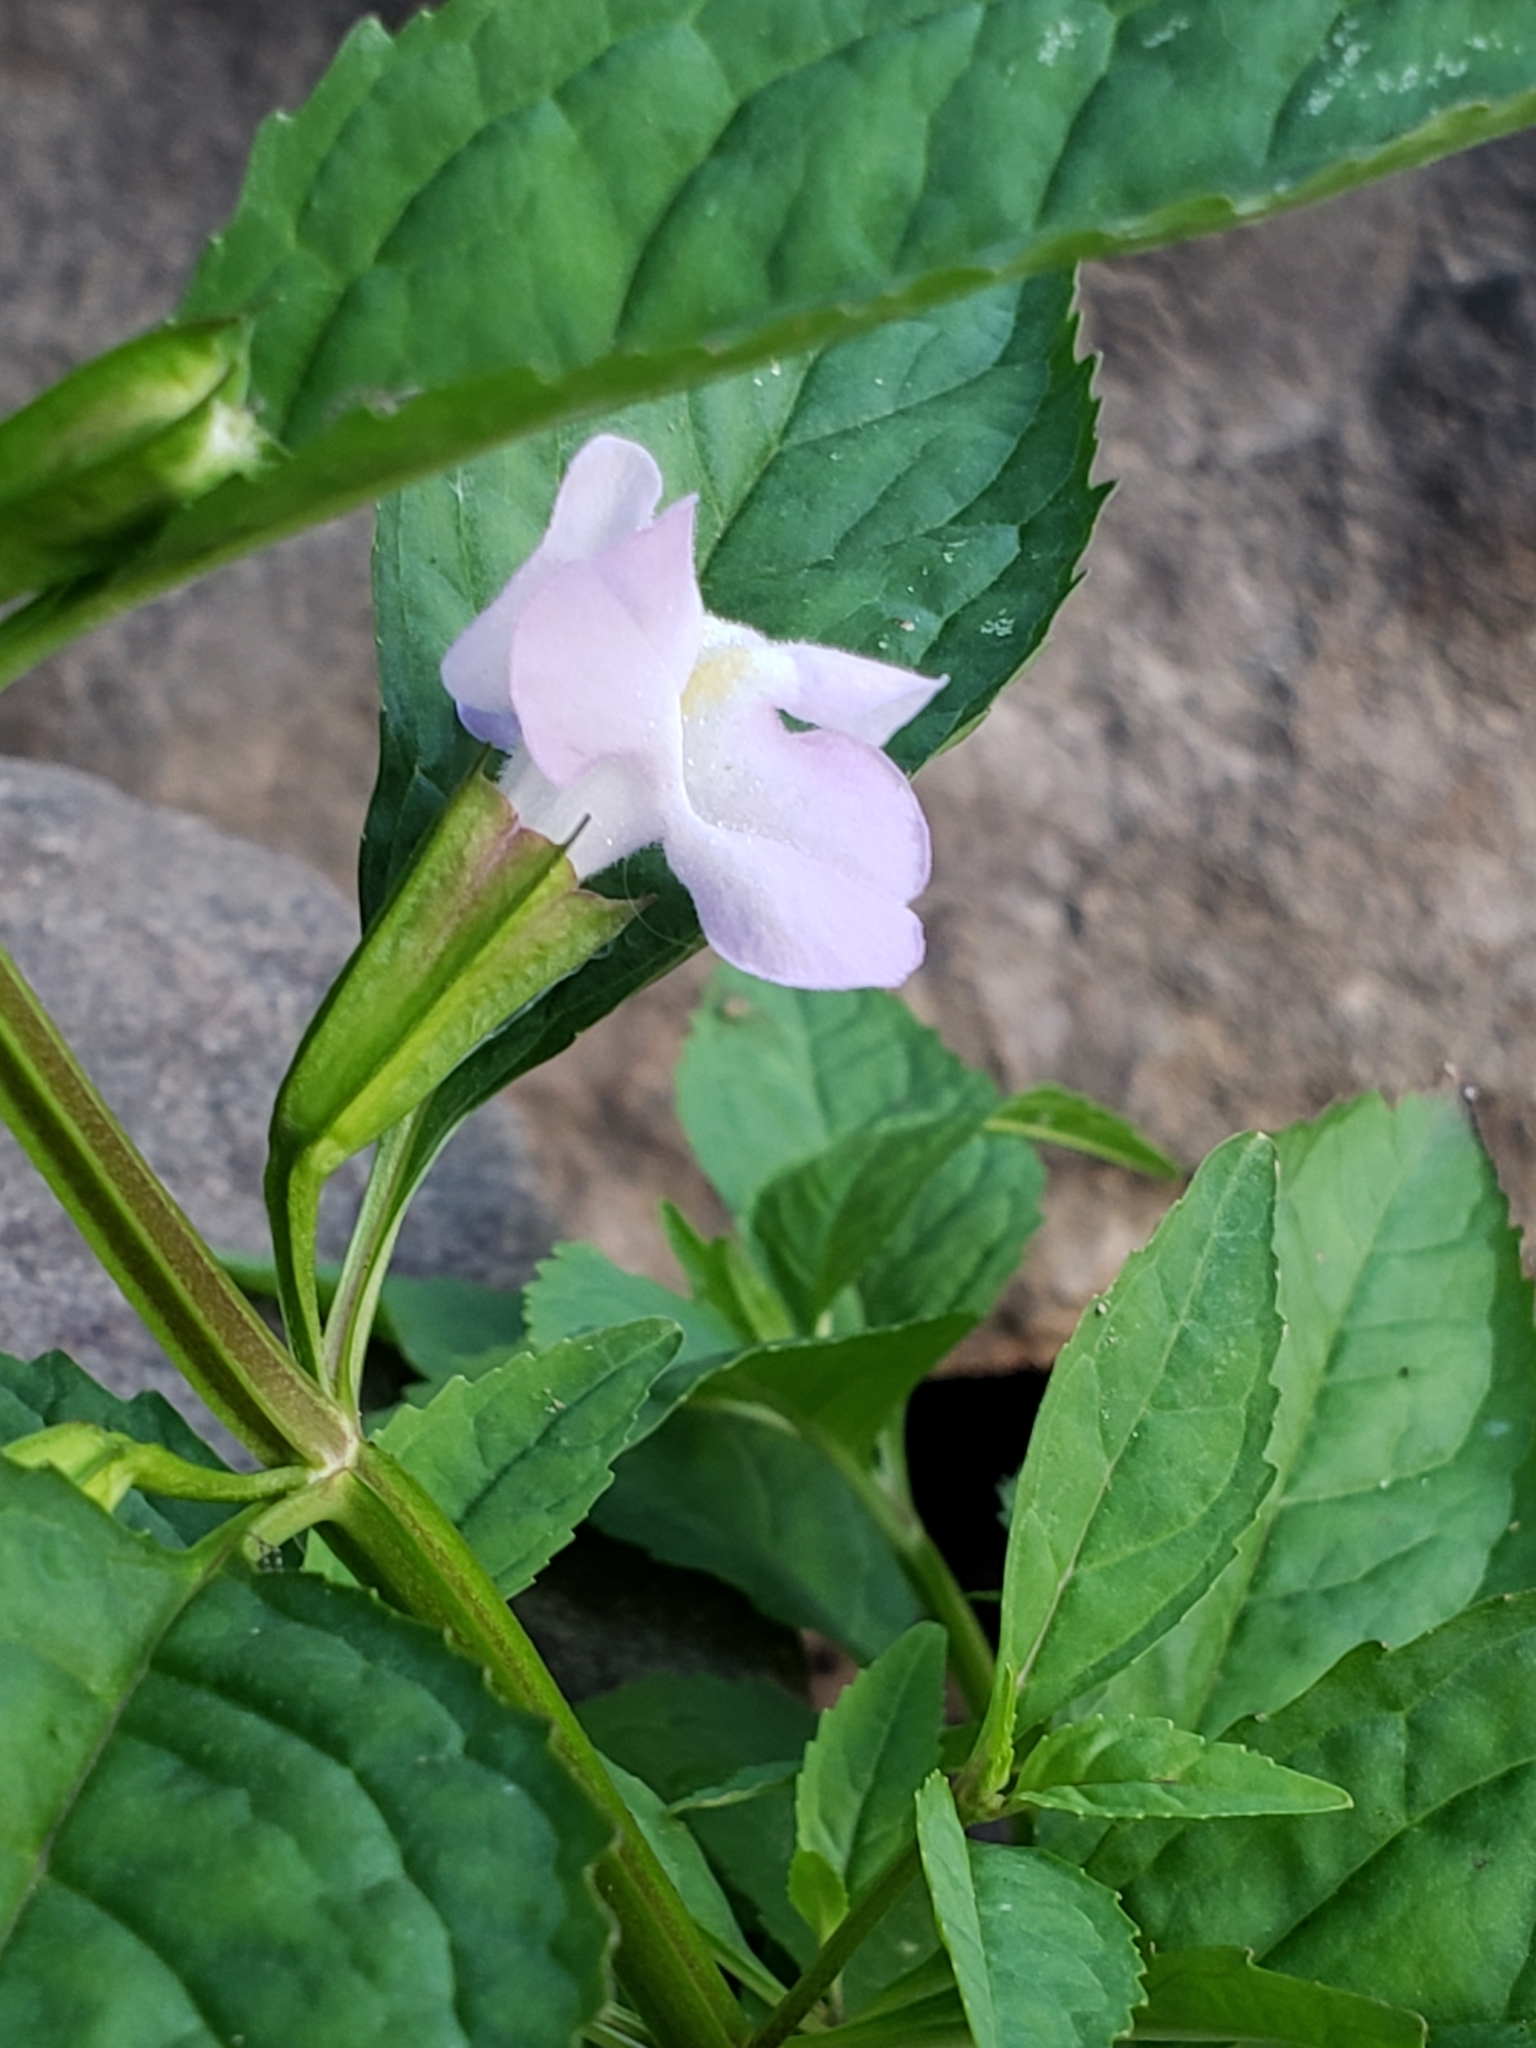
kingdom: Plantae
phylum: Tracheophyta
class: Magnoliopsida
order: Lamiales
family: Phrymaceae
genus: Mimulus
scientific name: Mimulus alatus
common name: Sharp-wing monkey-flower
